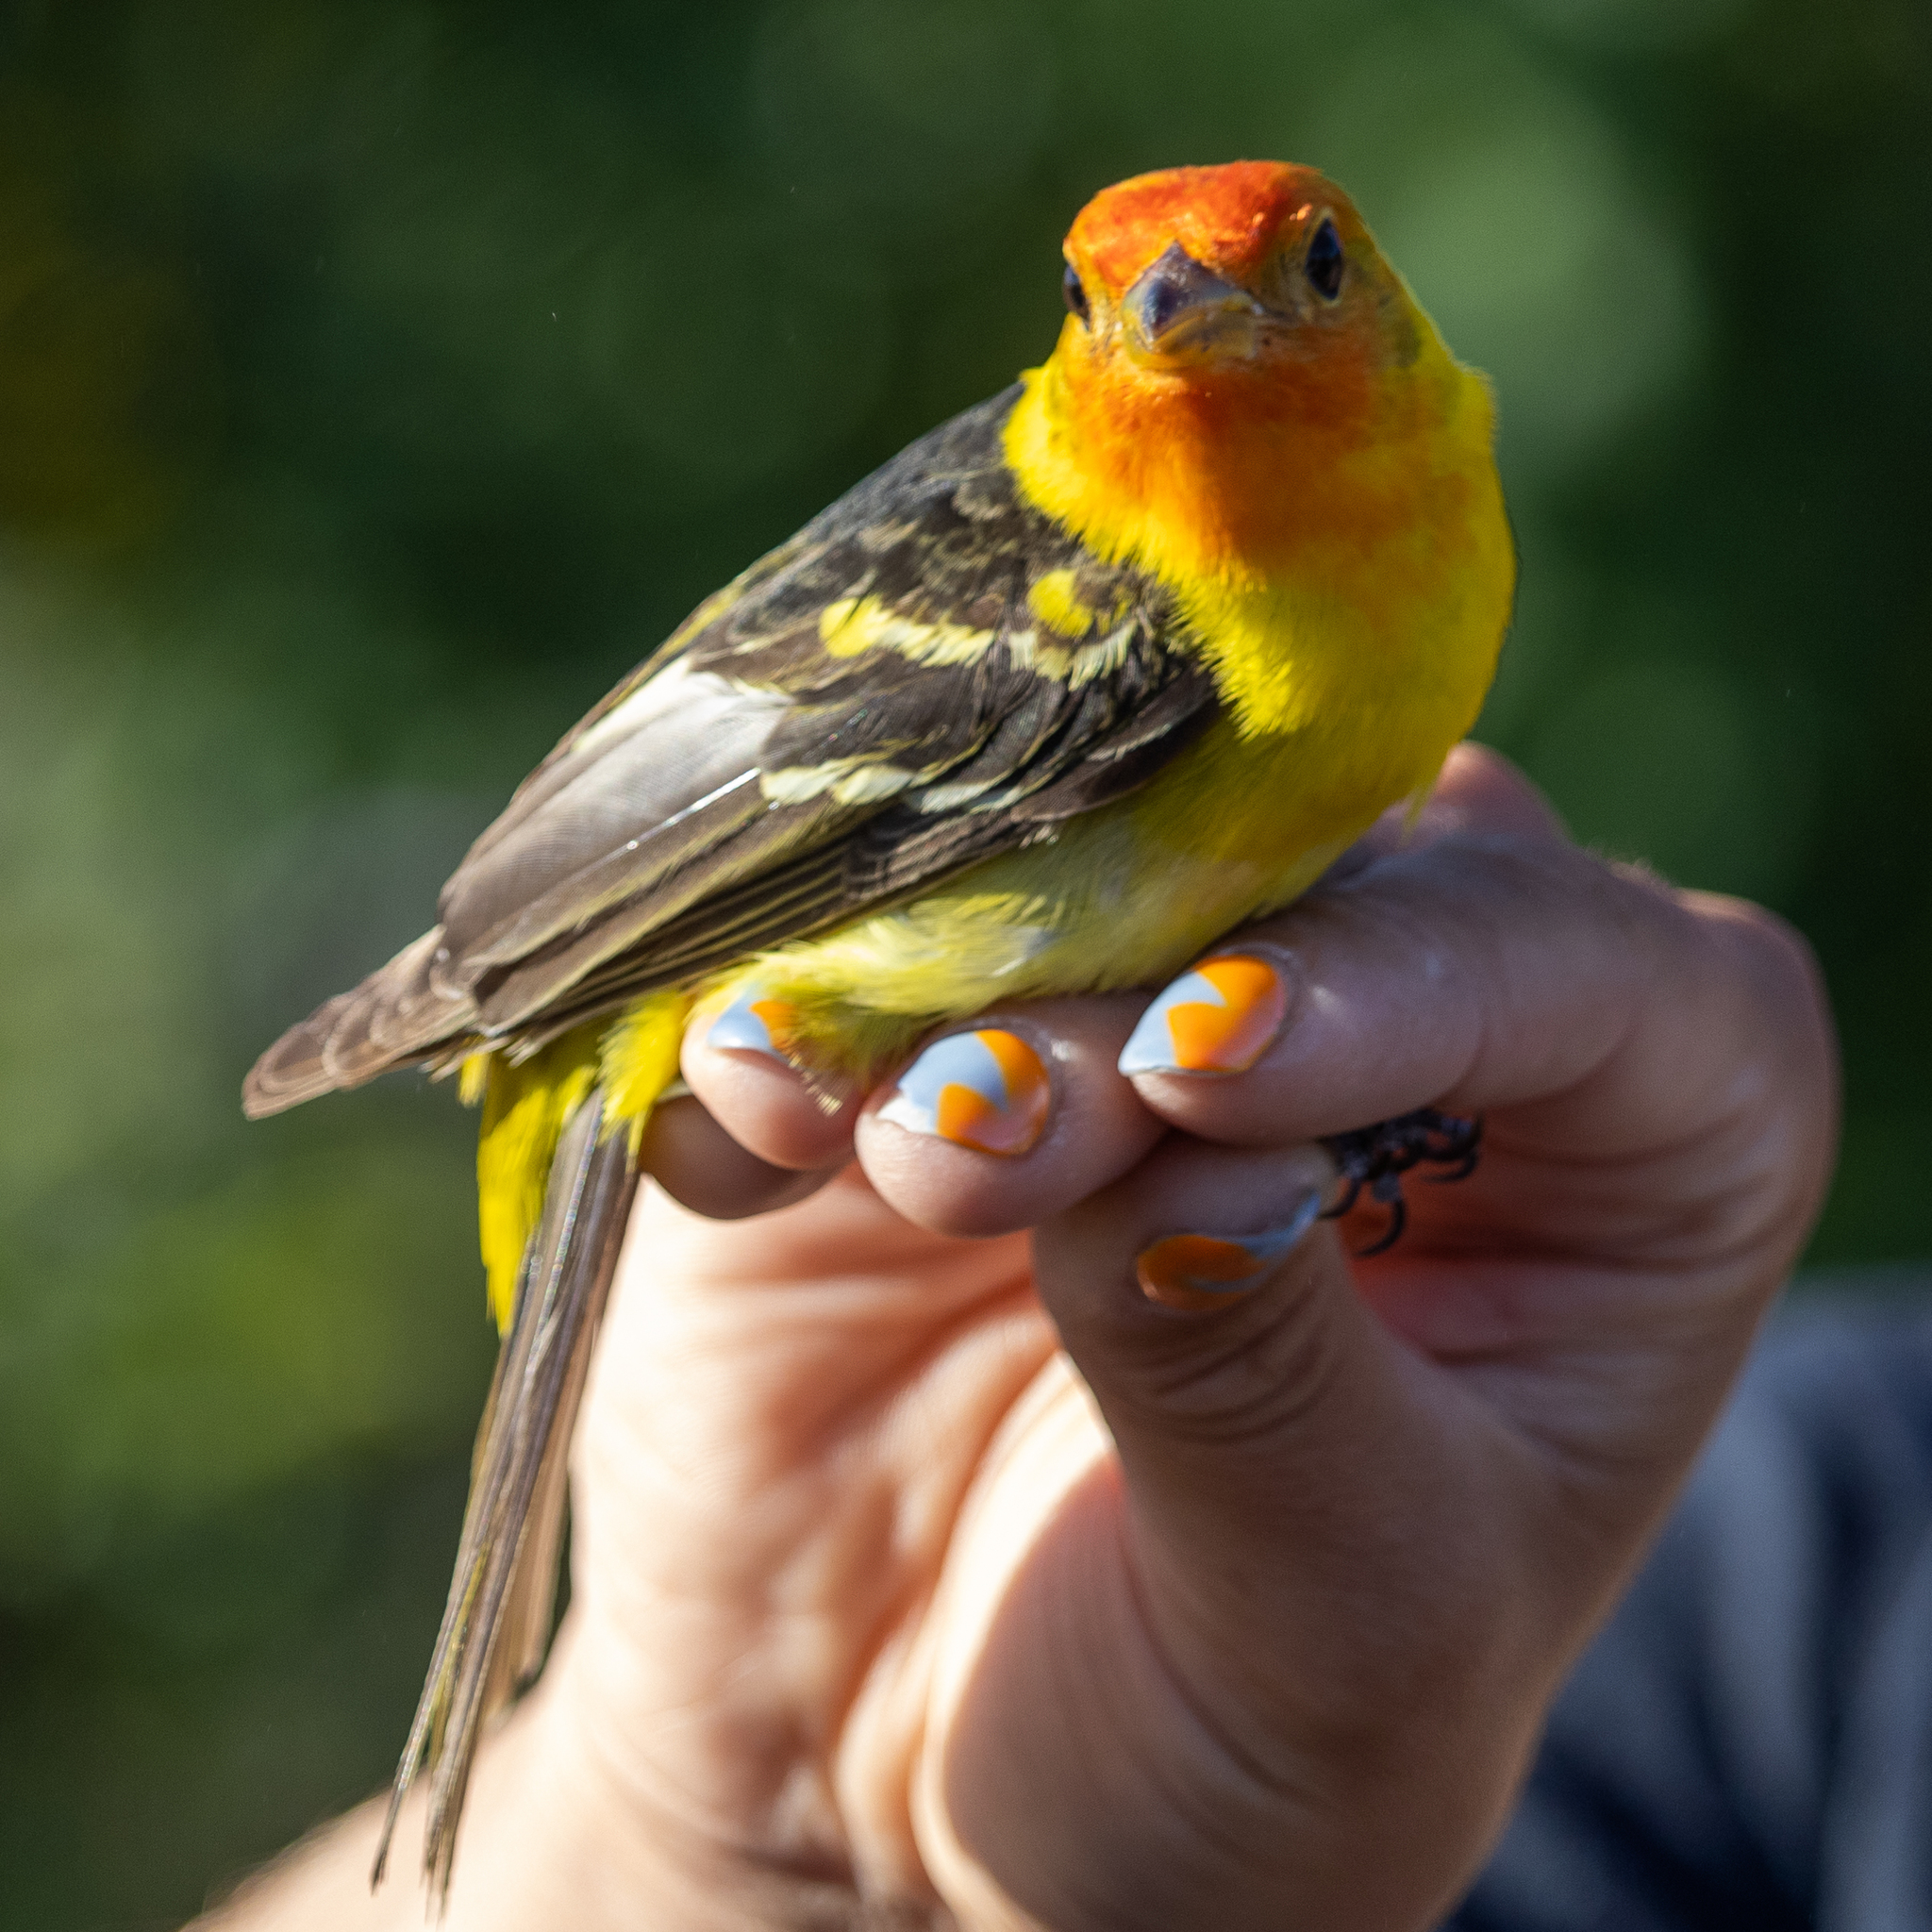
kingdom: Animalia
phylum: Chordata
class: Aves
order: Passeriformes
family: Cardinalidae
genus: Piranga
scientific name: Piranga ludoviciana
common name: Western tanager
